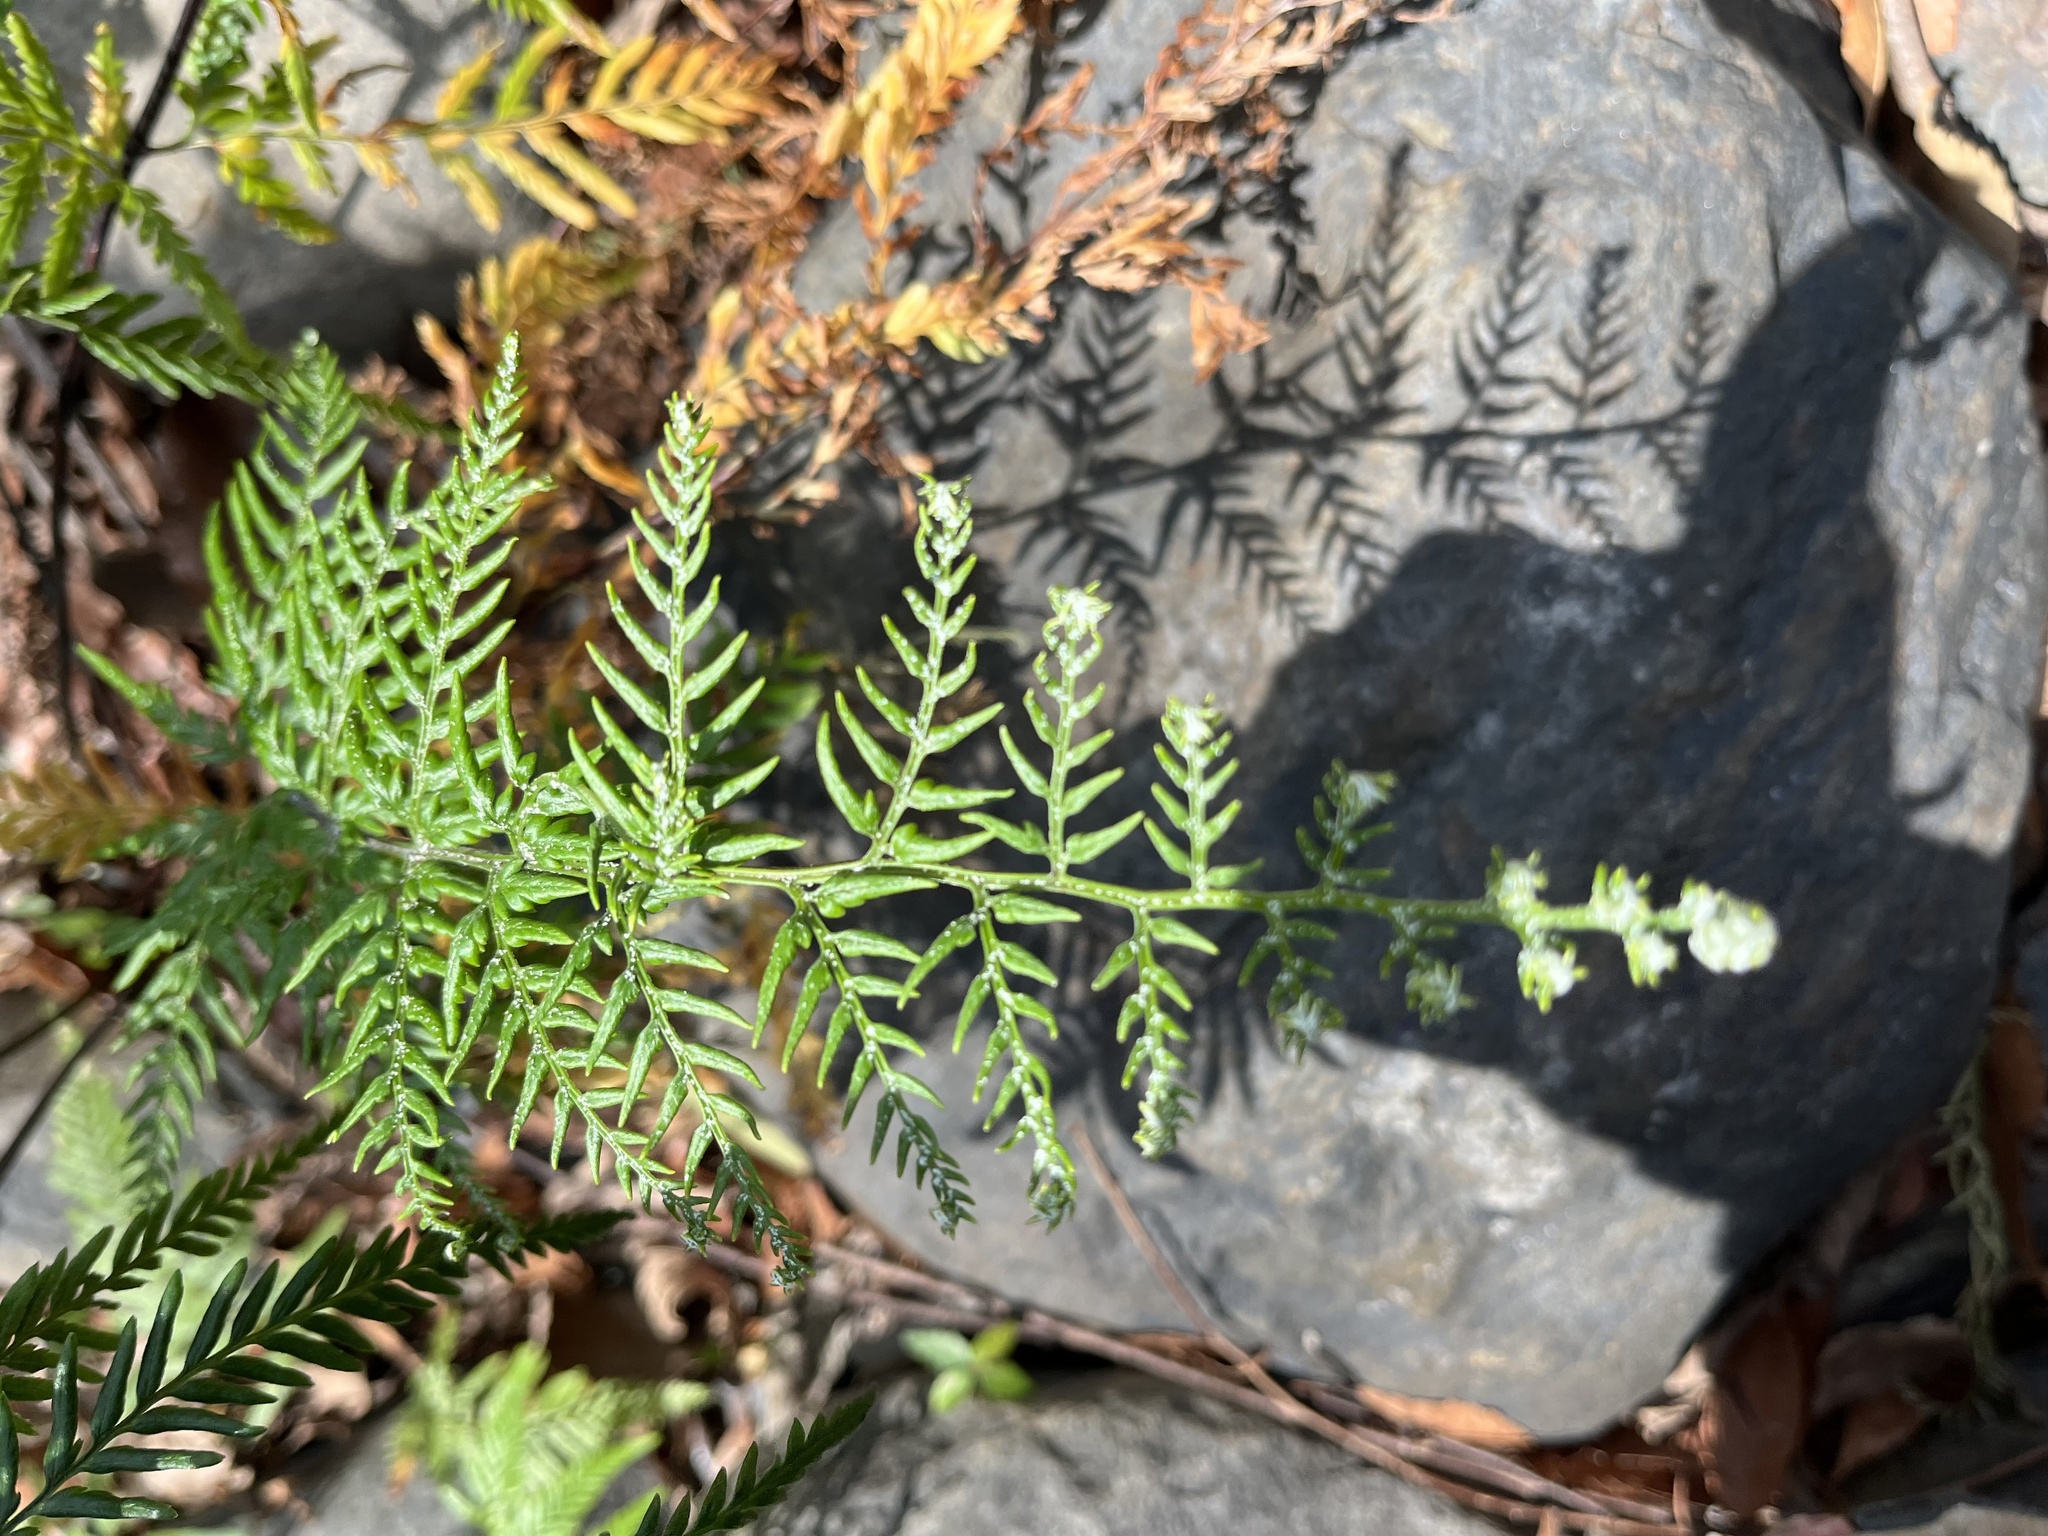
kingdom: Plantae
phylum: Tracheophyta
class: Polypodiopsida
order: Polypodiales
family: Pteridaceae
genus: Pityrogramma
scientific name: Pityrogramma calomelanos
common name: Dixie silverback fern
